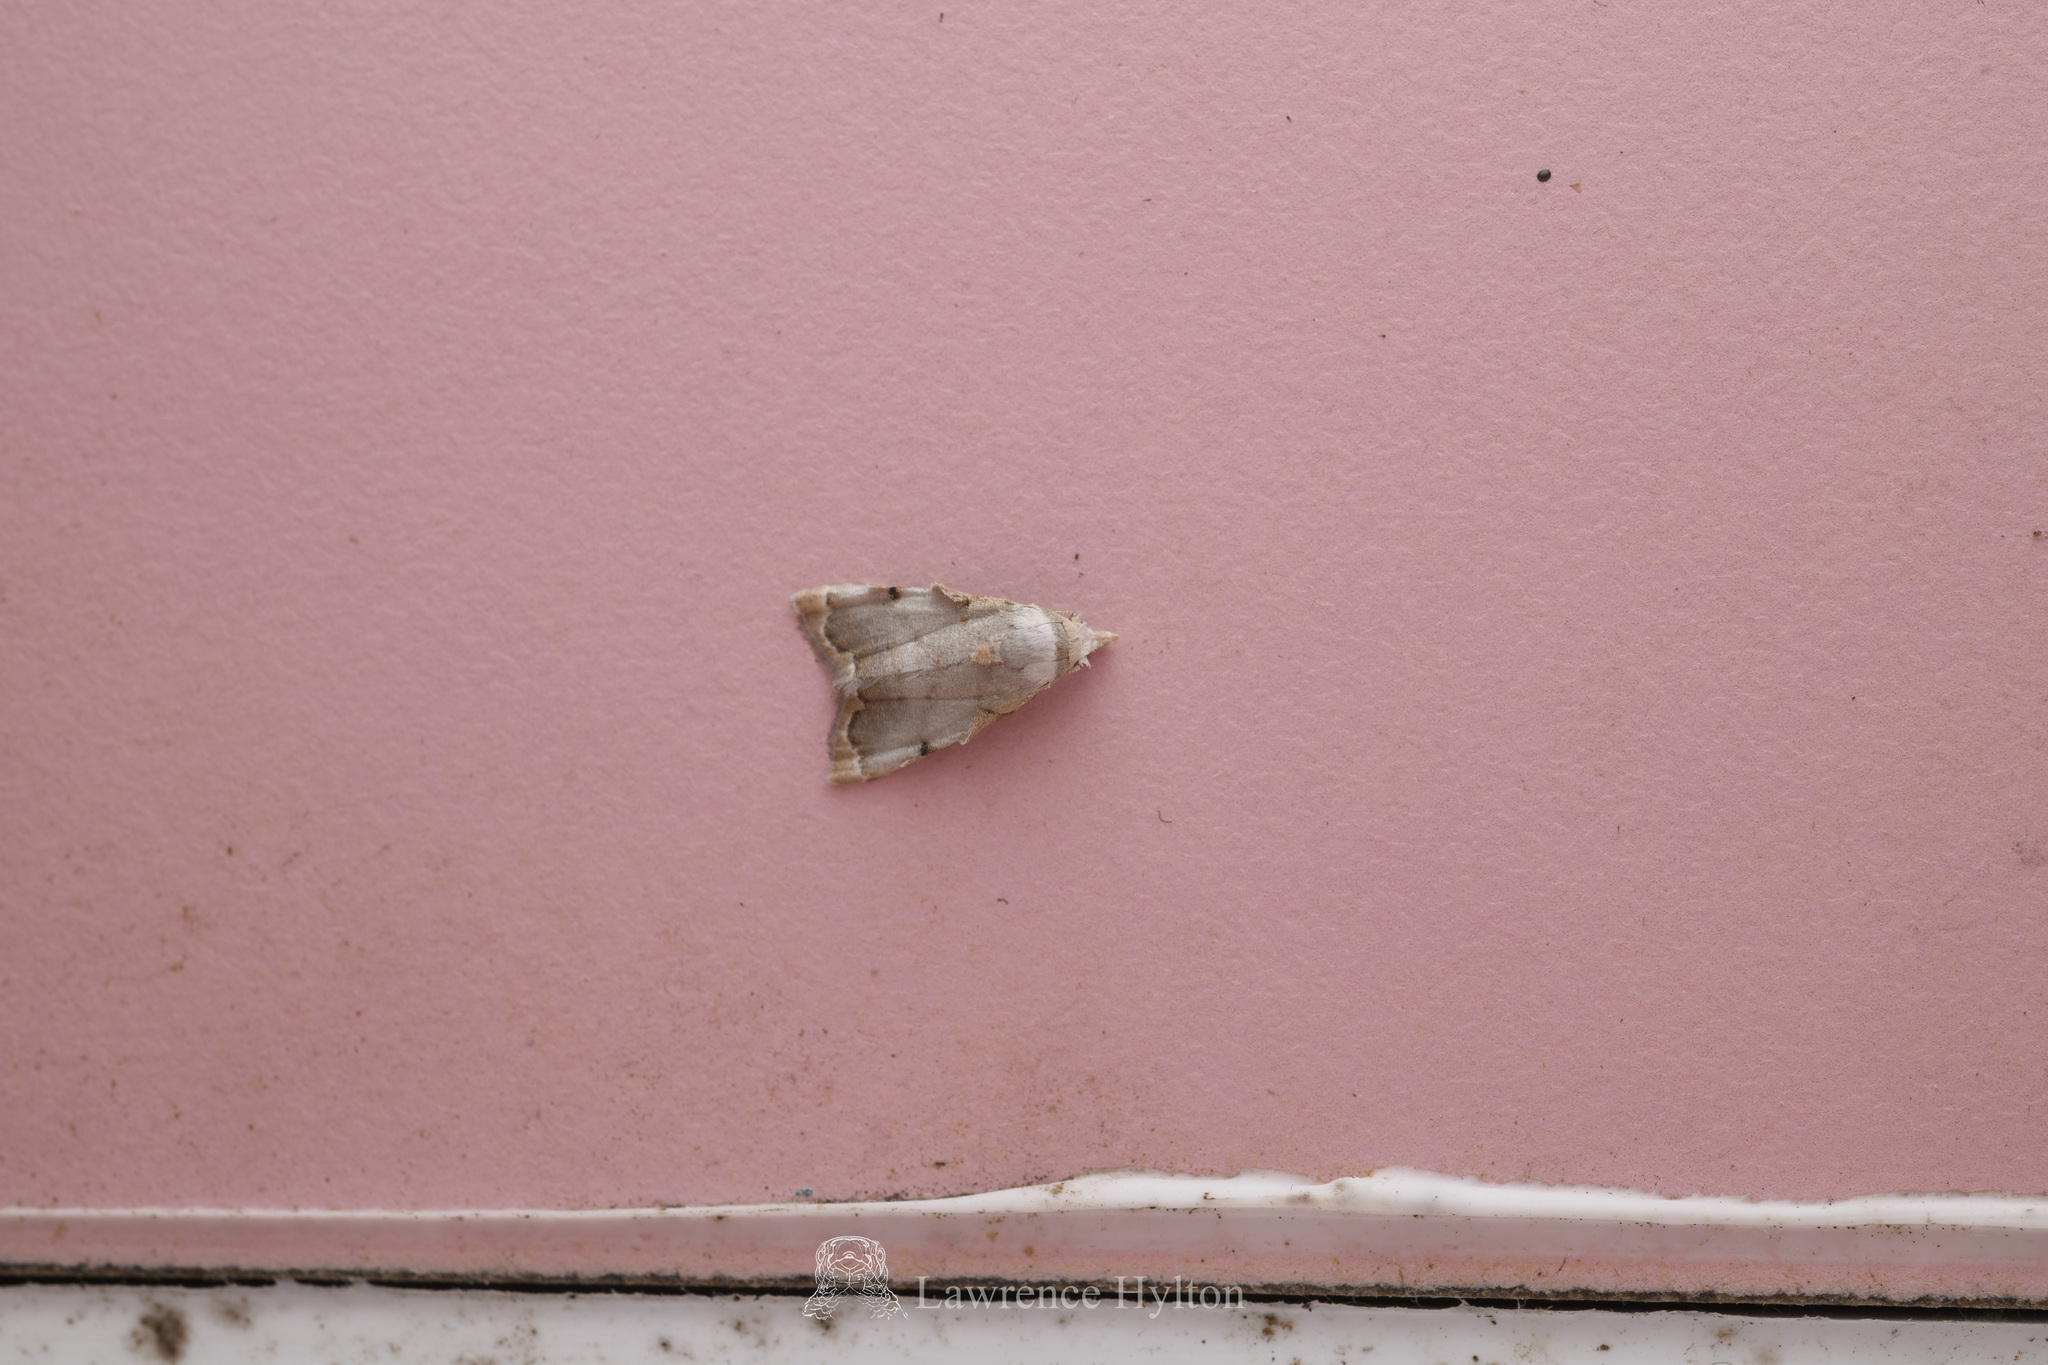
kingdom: Animalia
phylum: Arthropoda
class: Insecta
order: Lepidoptera
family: Nolidae
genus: Nola
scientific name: Nola marginata
